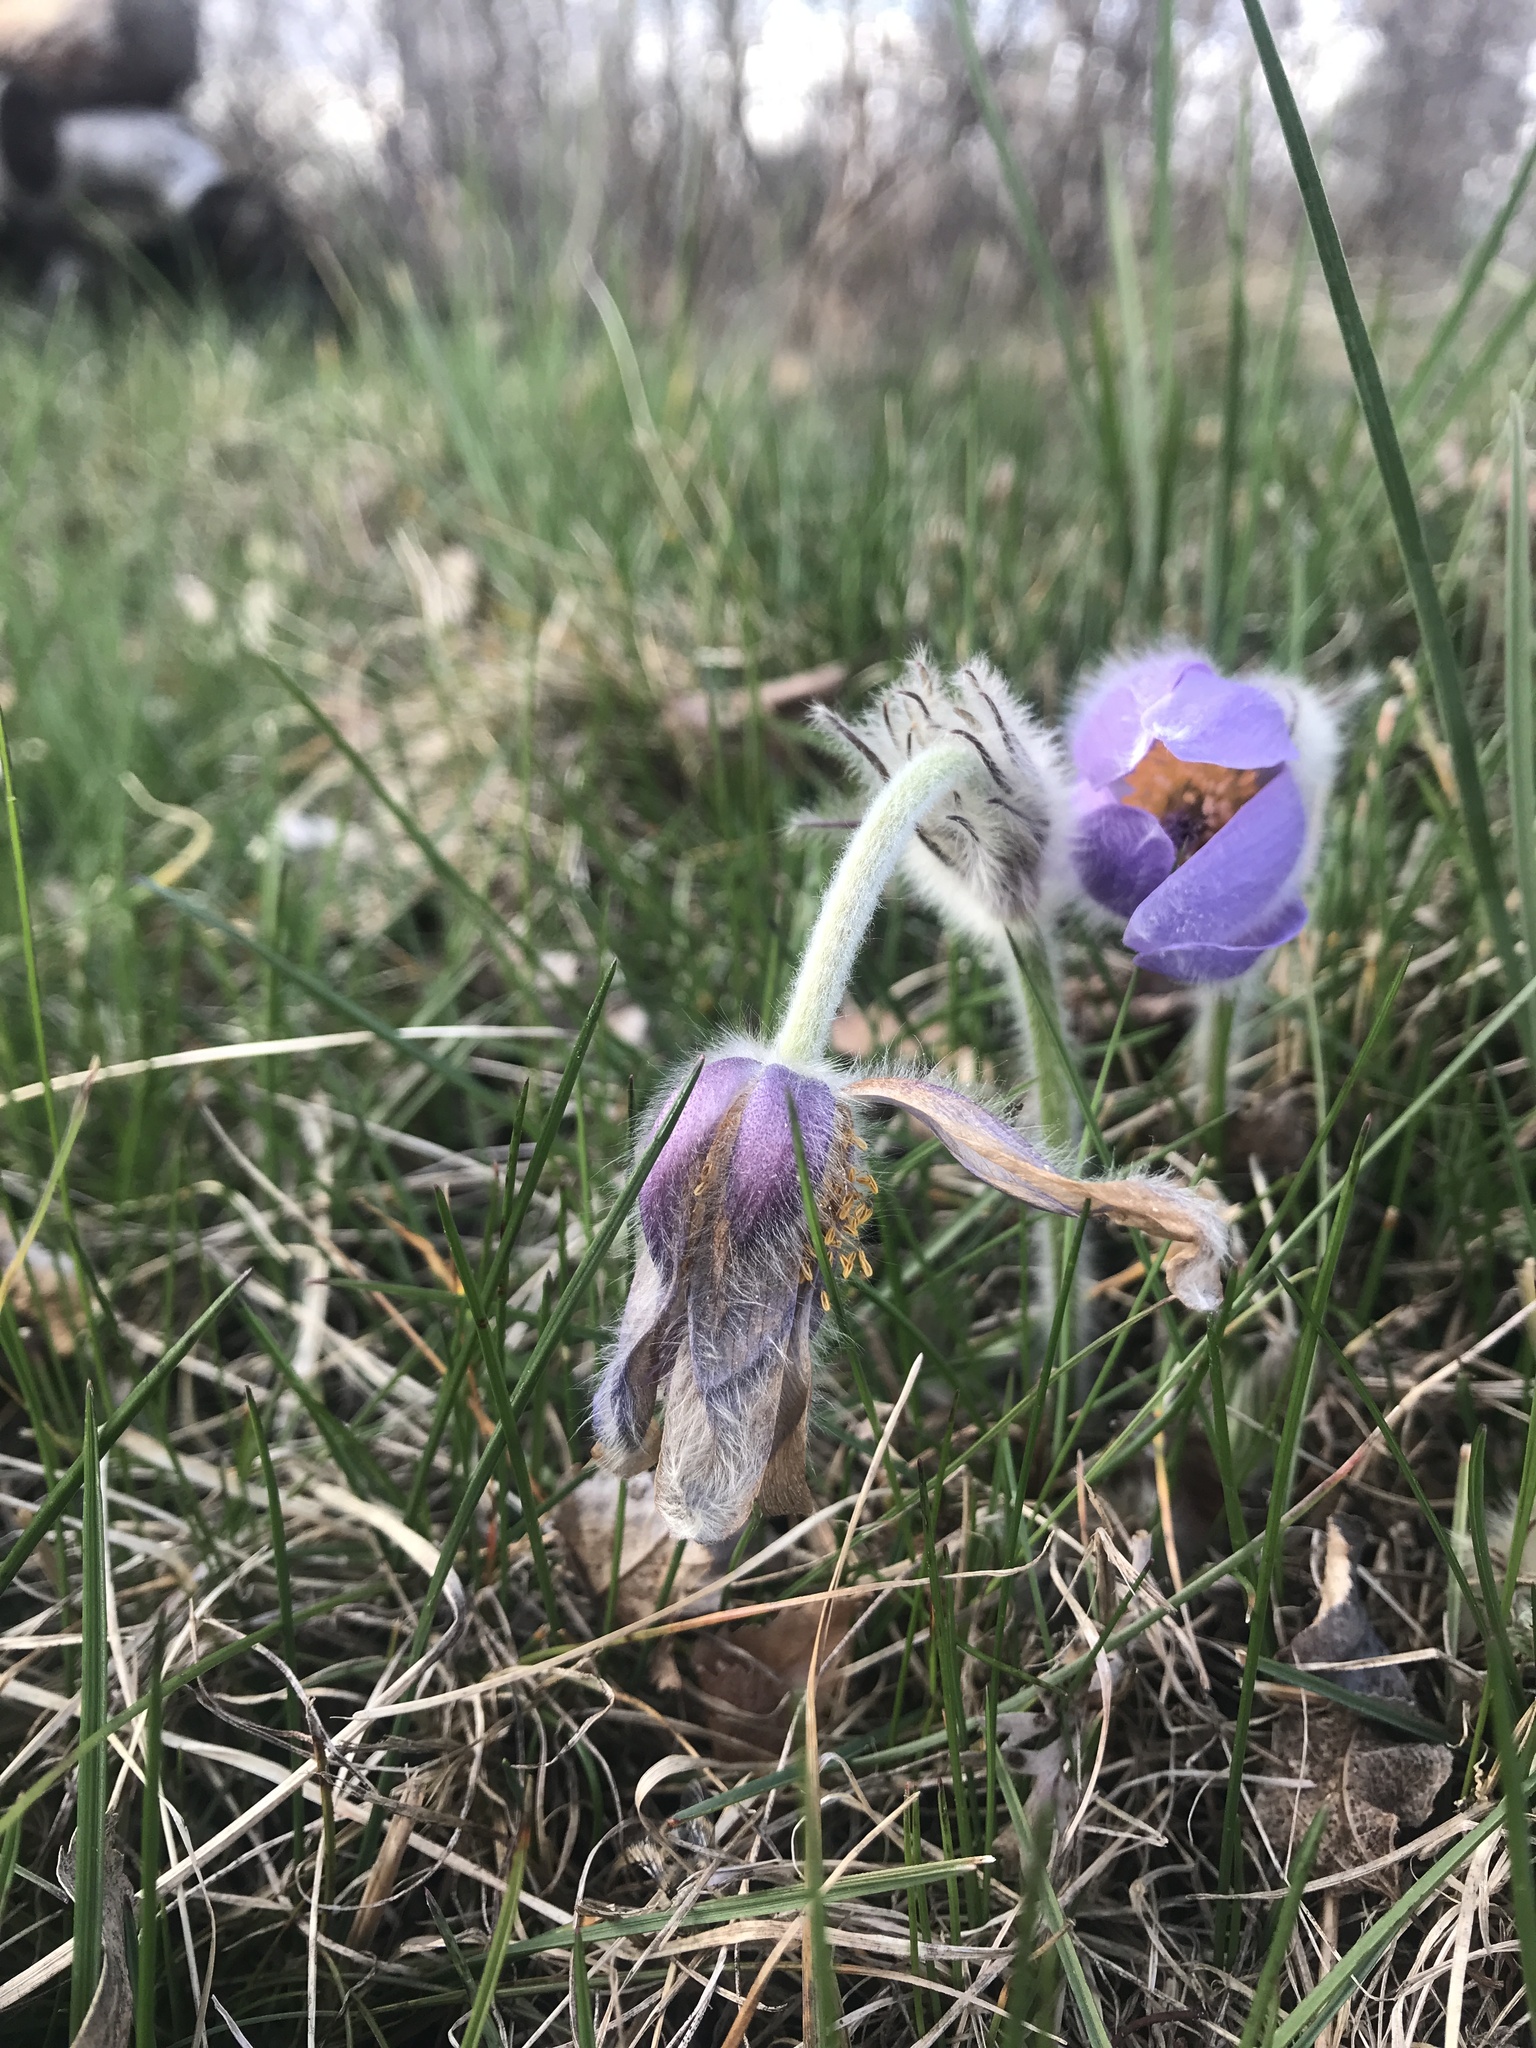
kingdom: Plantae
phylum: Tracheophyta
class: Magnoliopsida
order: Ranunculales
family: Ranunculaceae
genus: Pulsatilla
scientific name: Pulsatilla grandis
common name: Greater pasque flower
